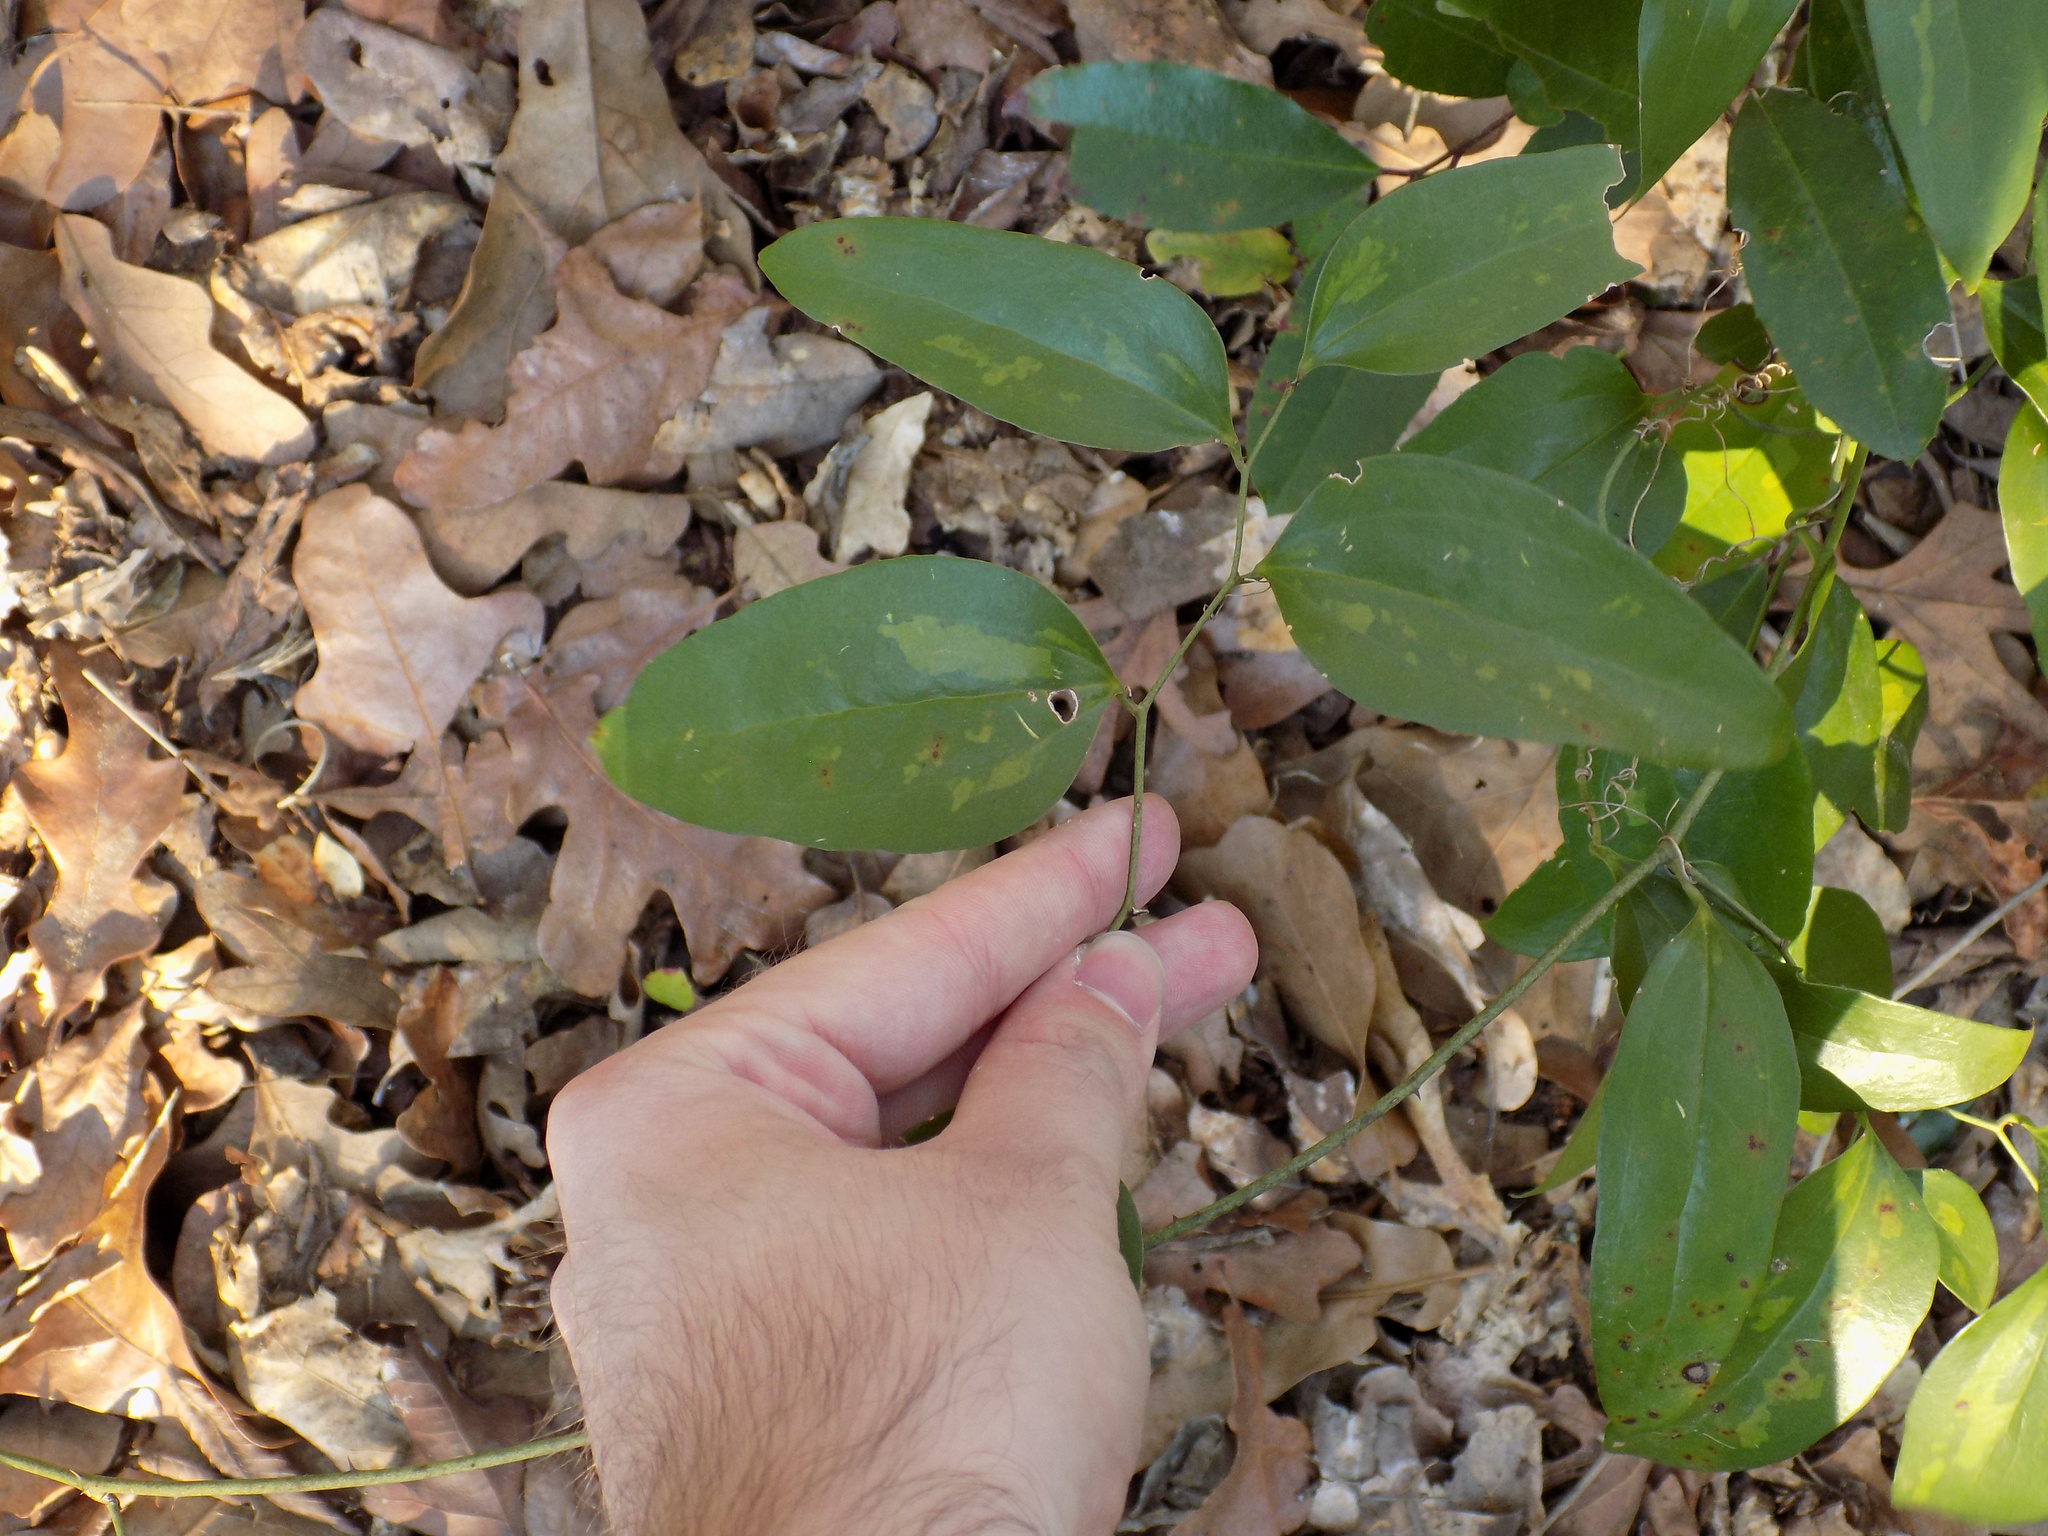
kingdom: Plantae
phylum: Tracheophyta
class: Liliopsida
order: Liliales
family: Smilacaceae
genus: Smilax
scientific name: Smilax maritima
